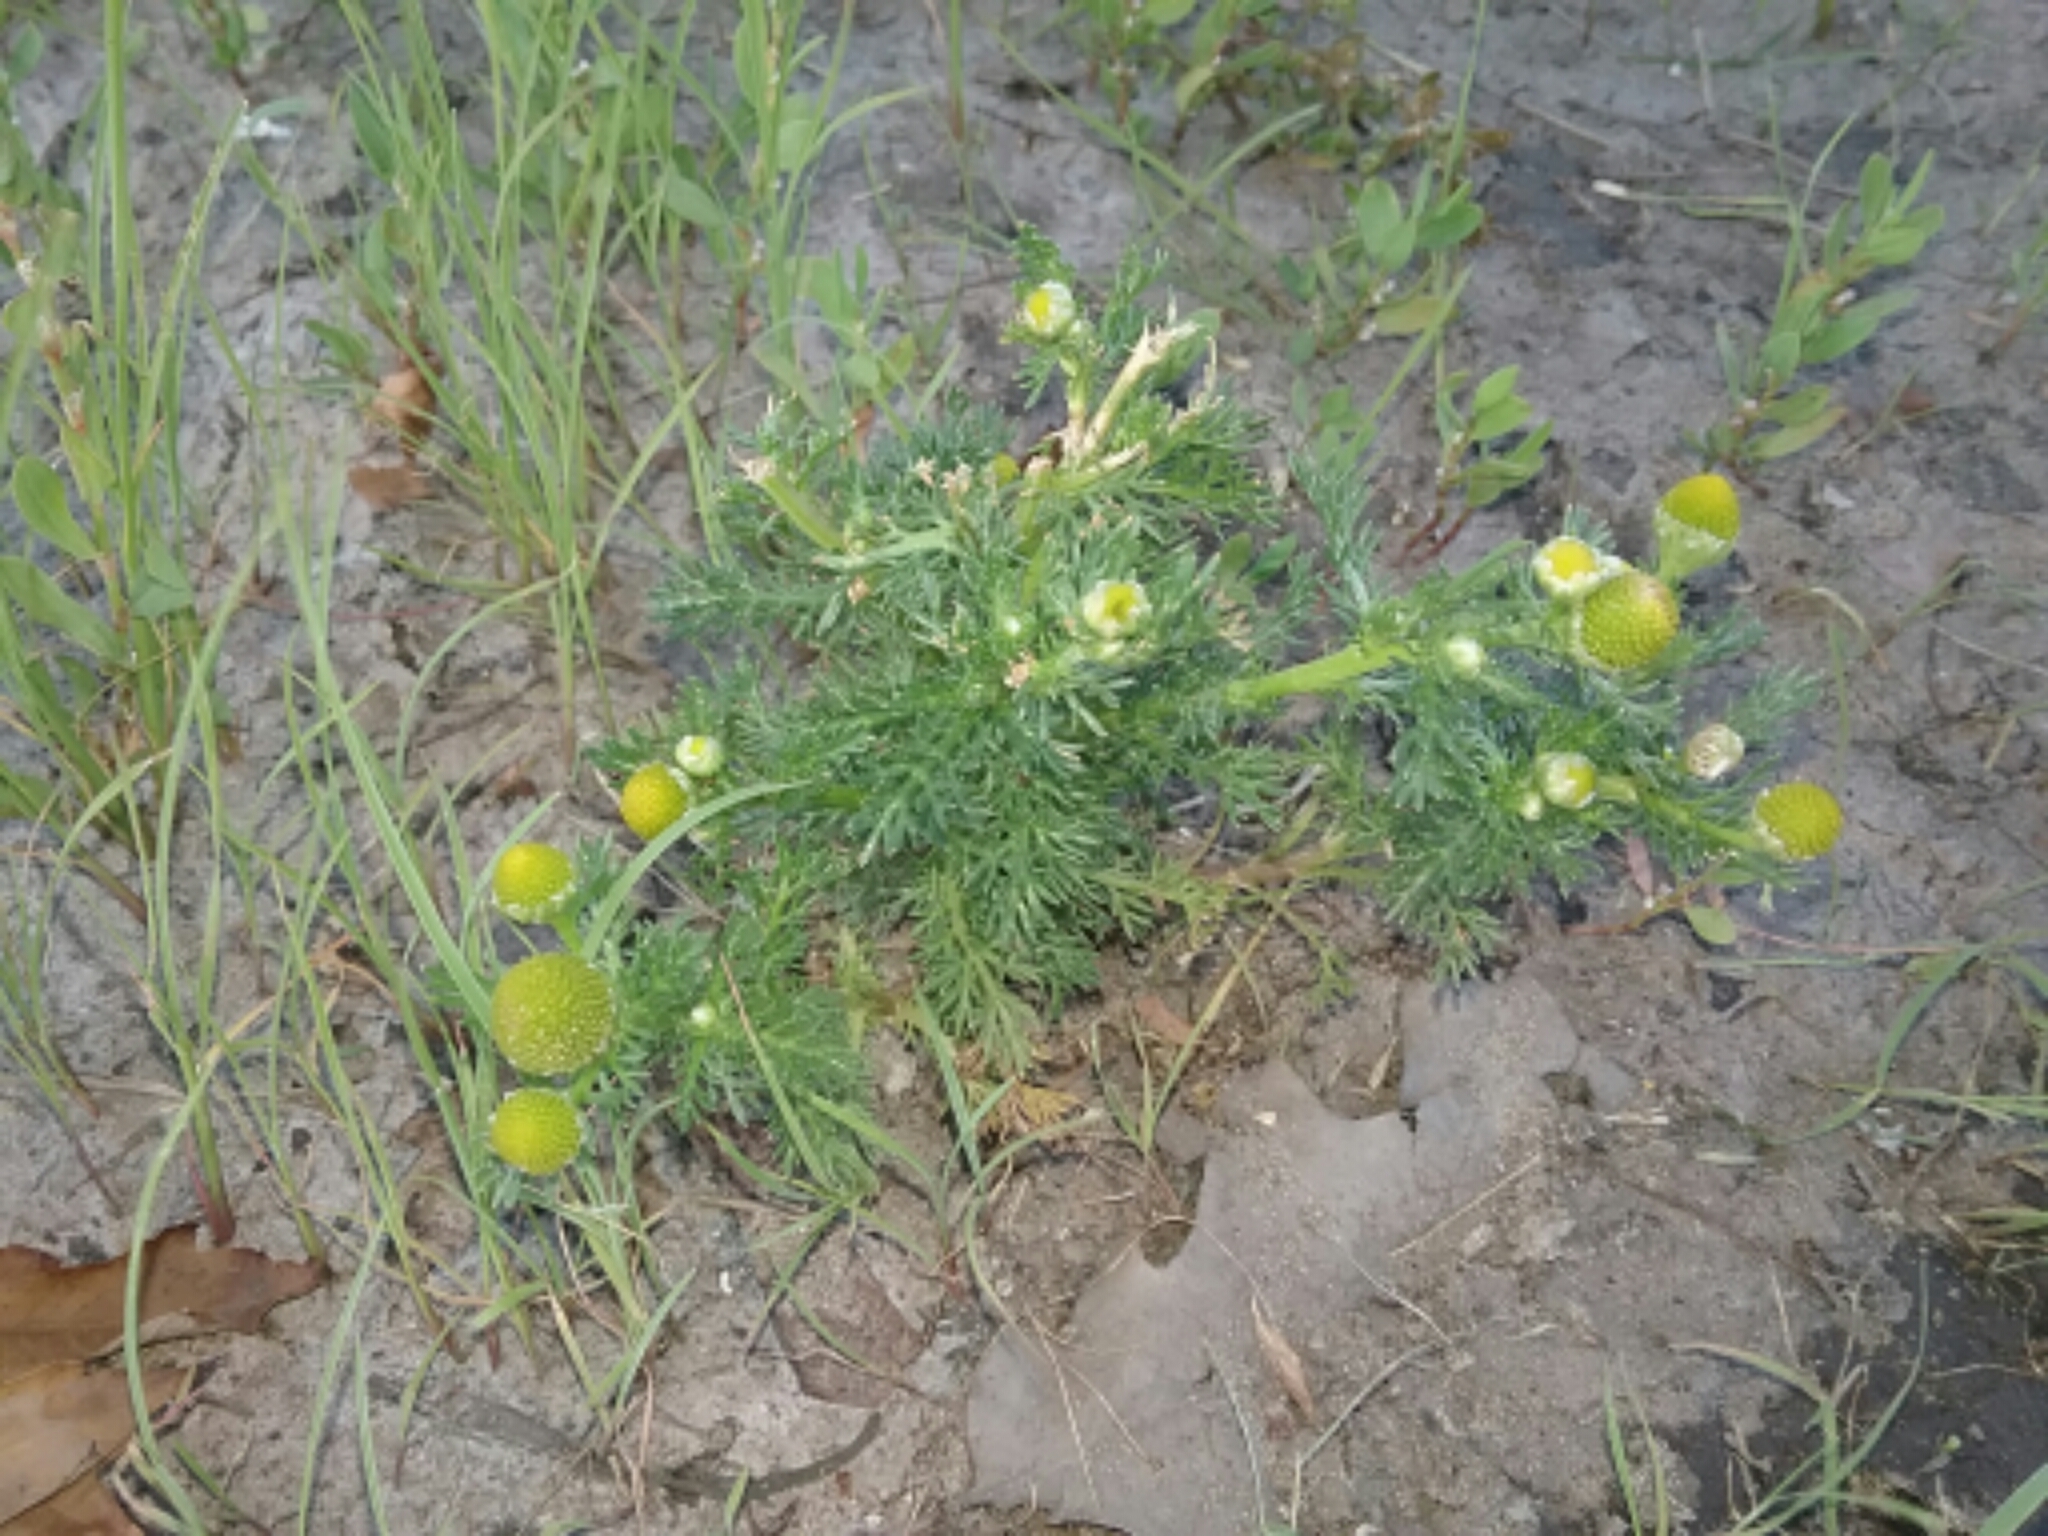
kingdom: Plantae
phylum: Tracheophyta
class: Magnoliopsida
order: Asterales
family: Asteraceae
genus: Matricaria
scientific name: Matricaria discoidea
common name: Disc mayweed
